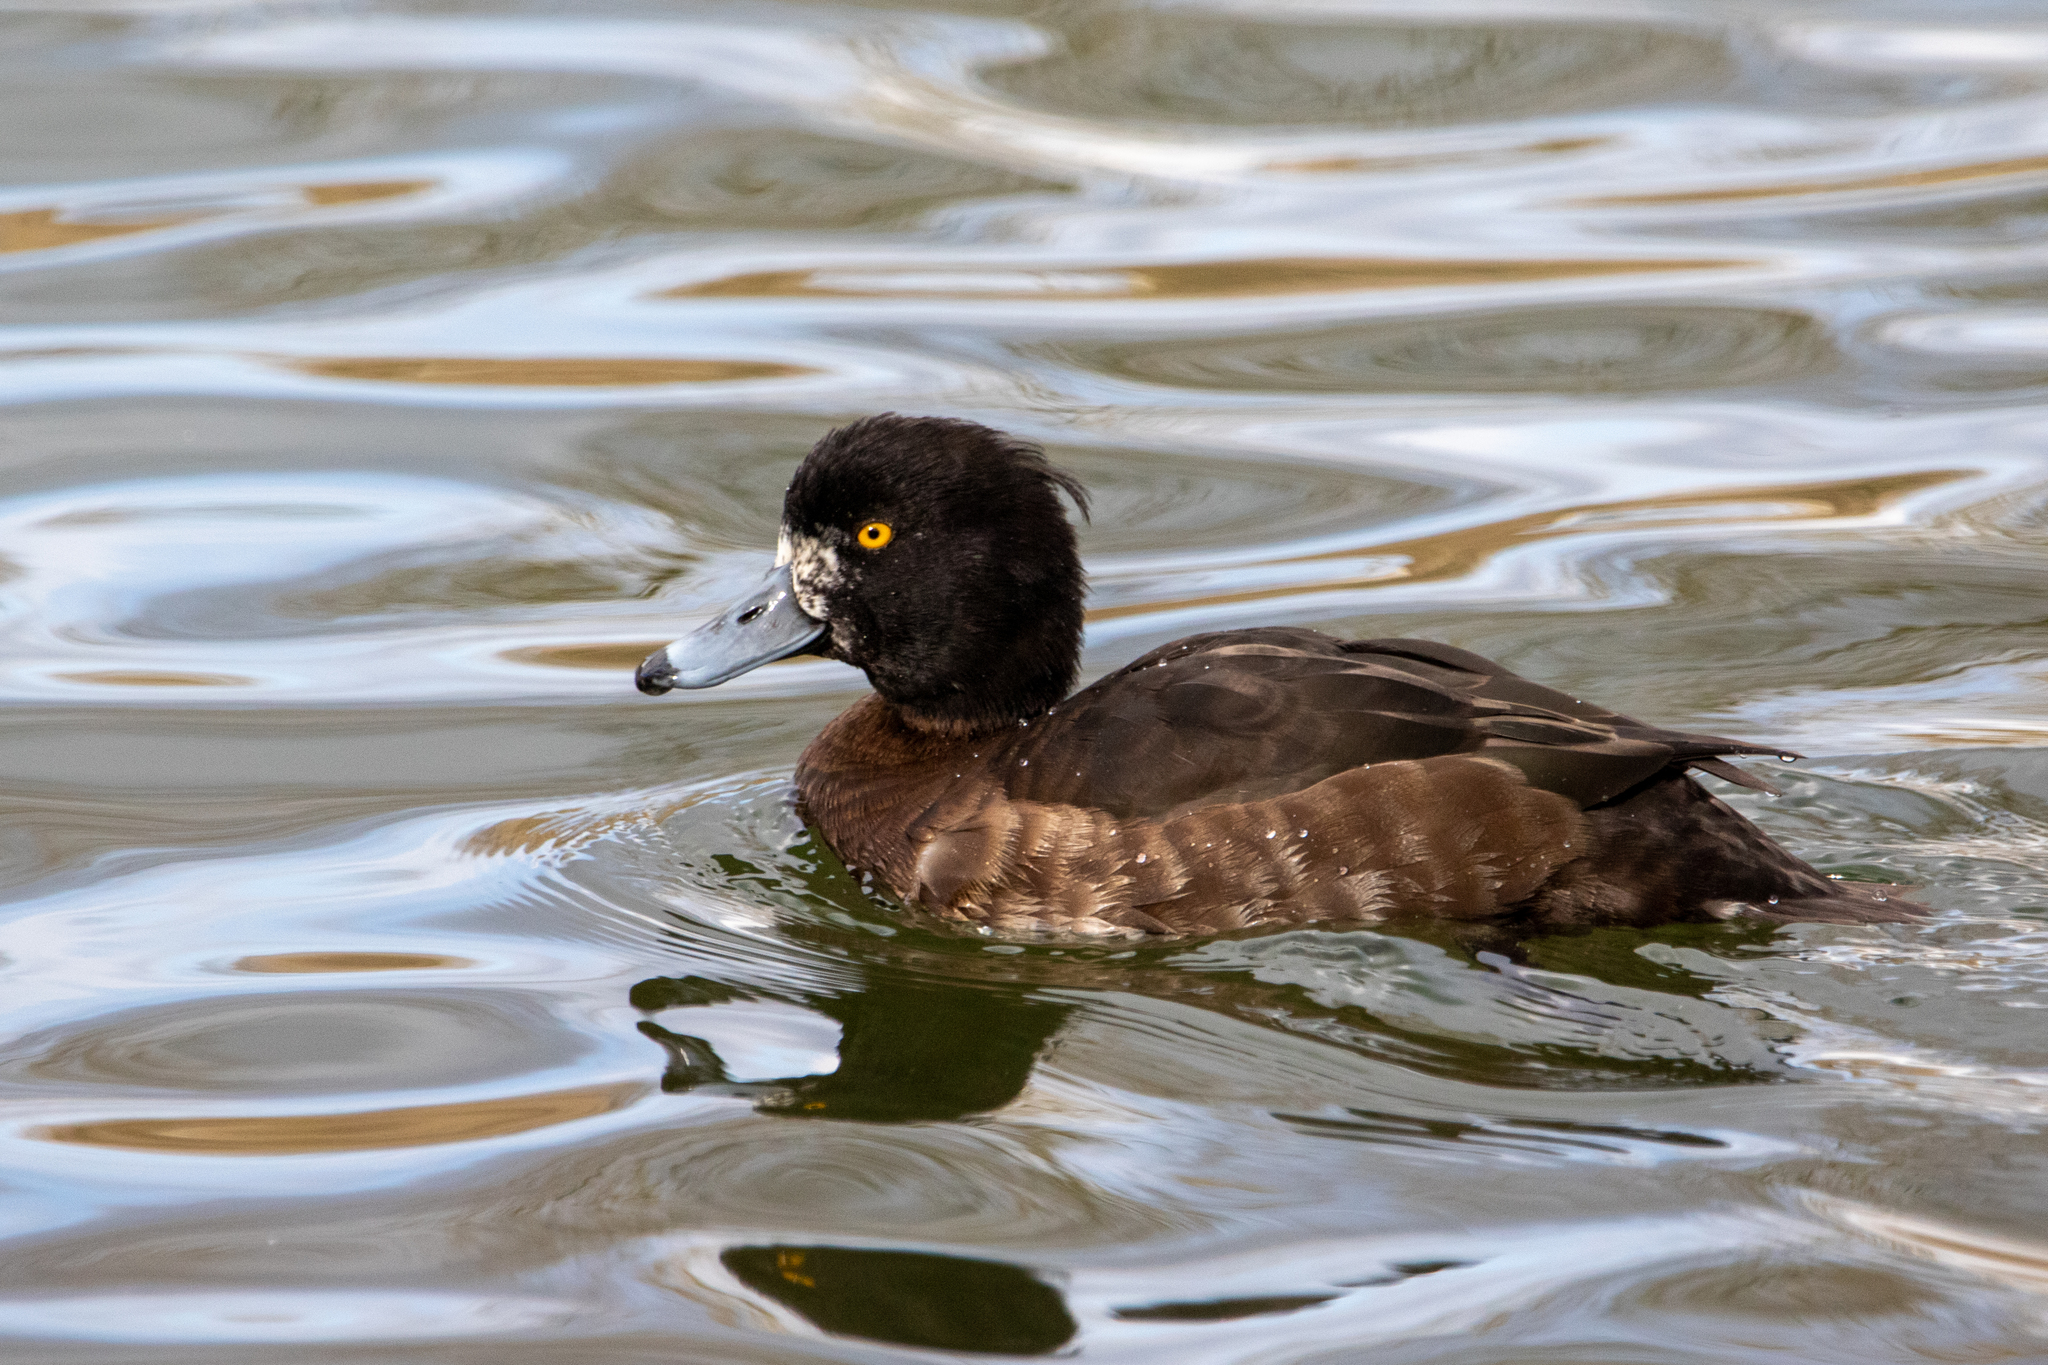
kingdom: Animalia
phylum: Chordata
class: Aves
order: Anseriformes
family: Anatidae
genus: Aythya
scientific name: Aythya fuligula
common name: Tufted duck
